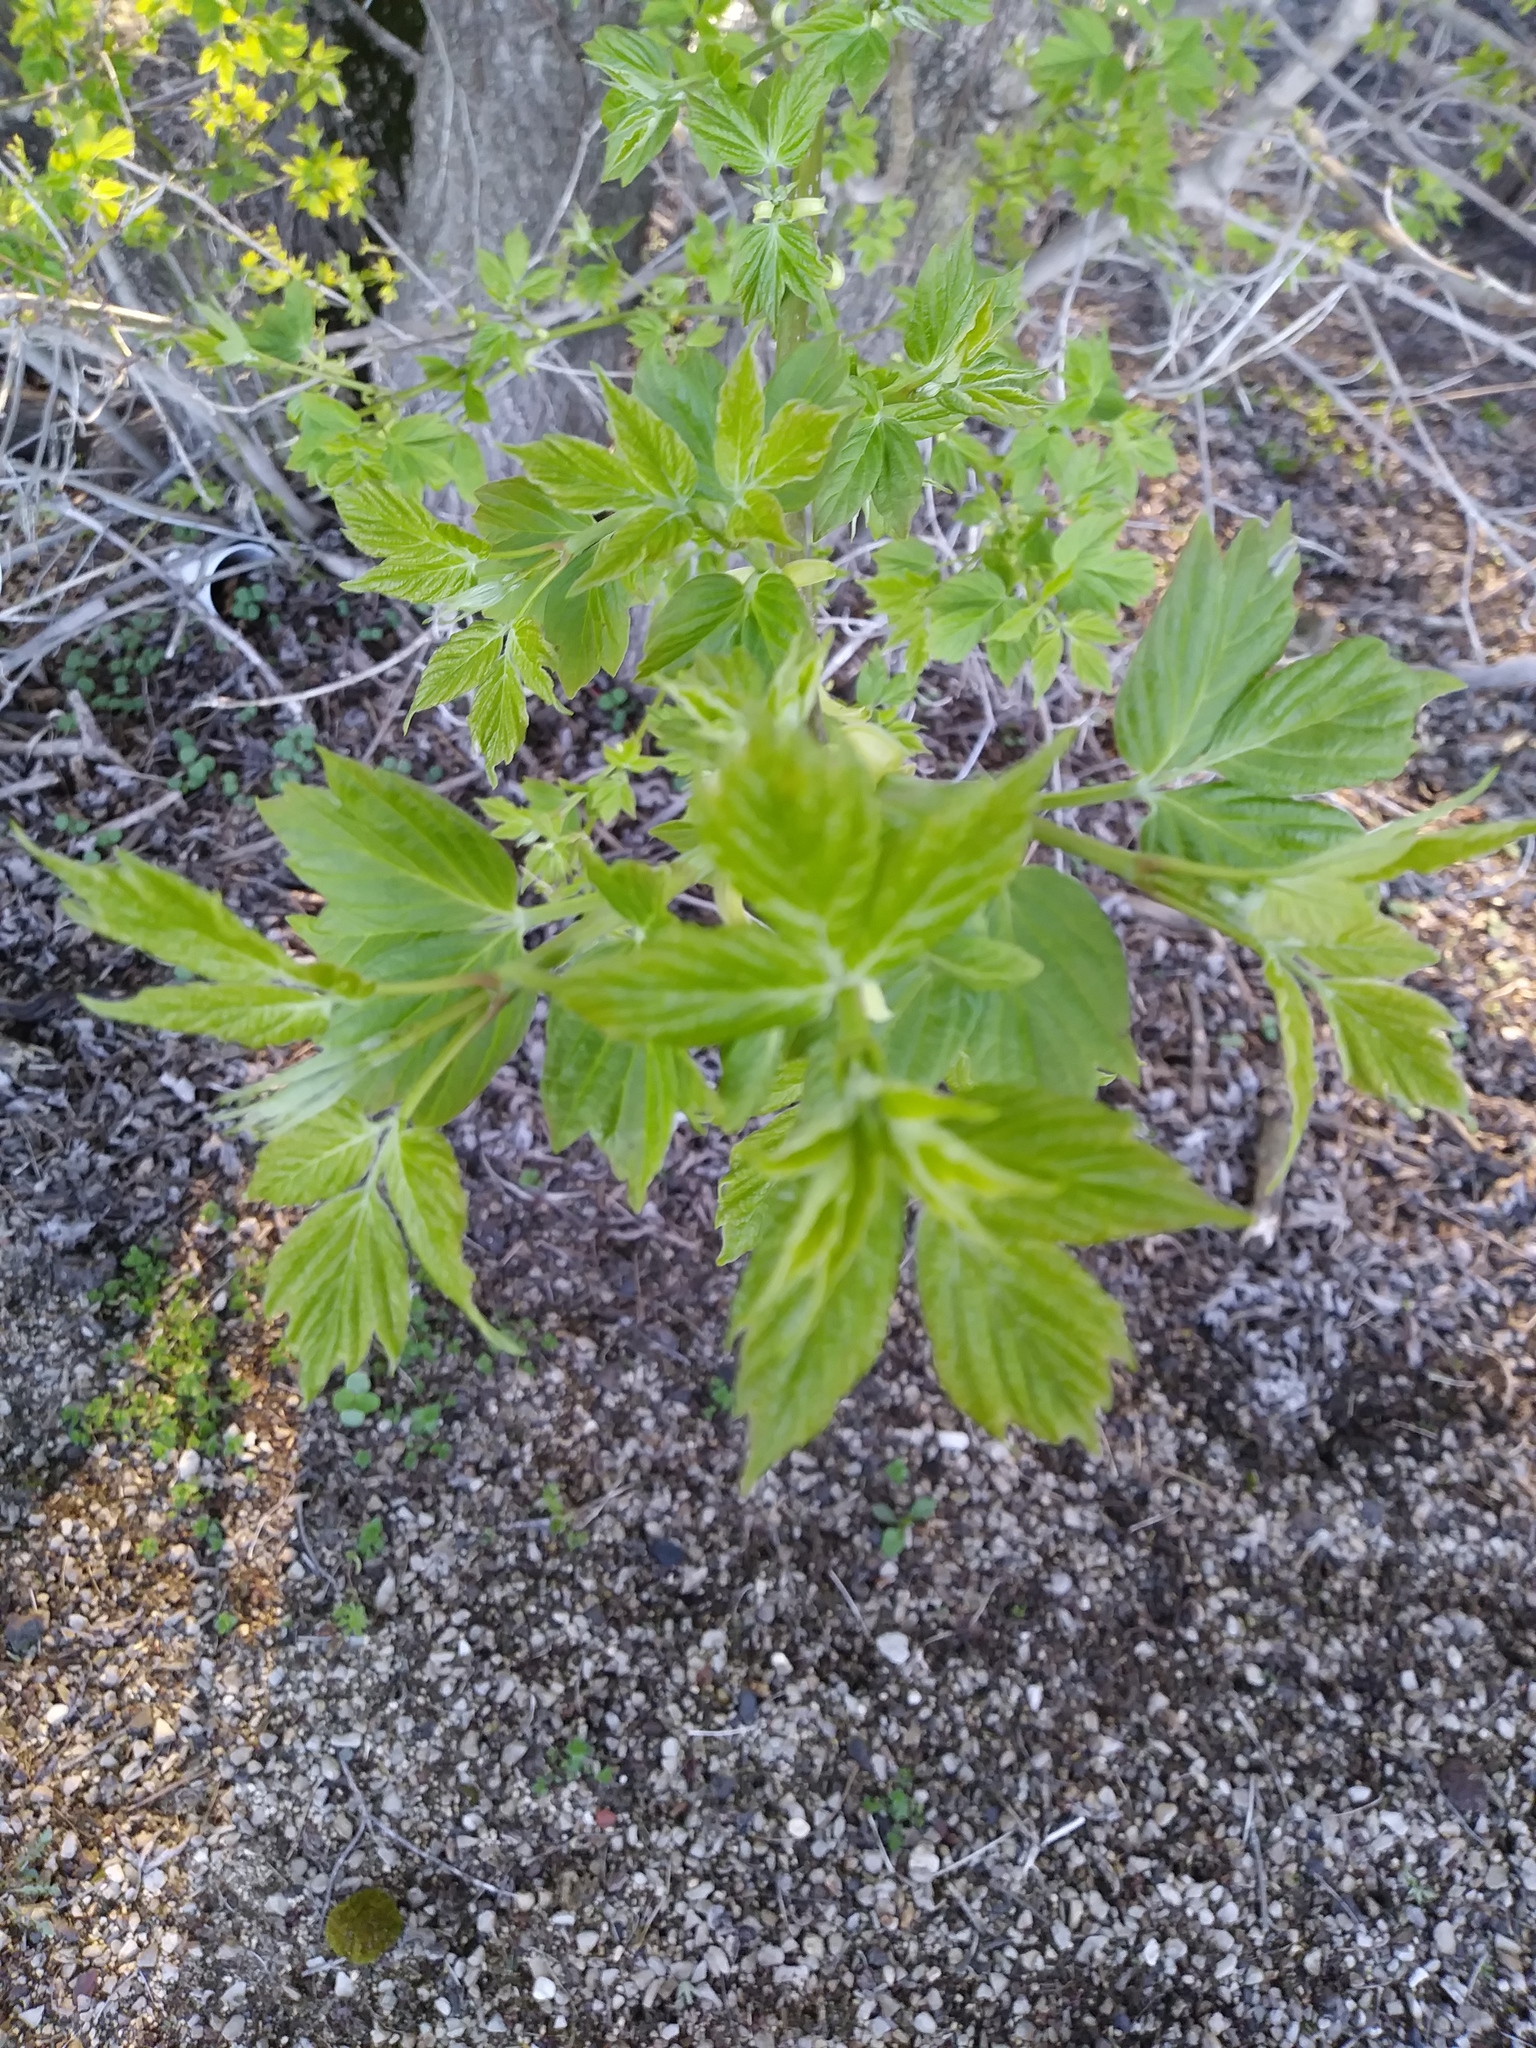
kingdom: Plantae
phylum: Tracheophyta
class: Magnoliopsida
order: Sapindales
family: Sapindaceae
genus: Acer
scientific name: Acer negundo
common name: Ashleaf maple
